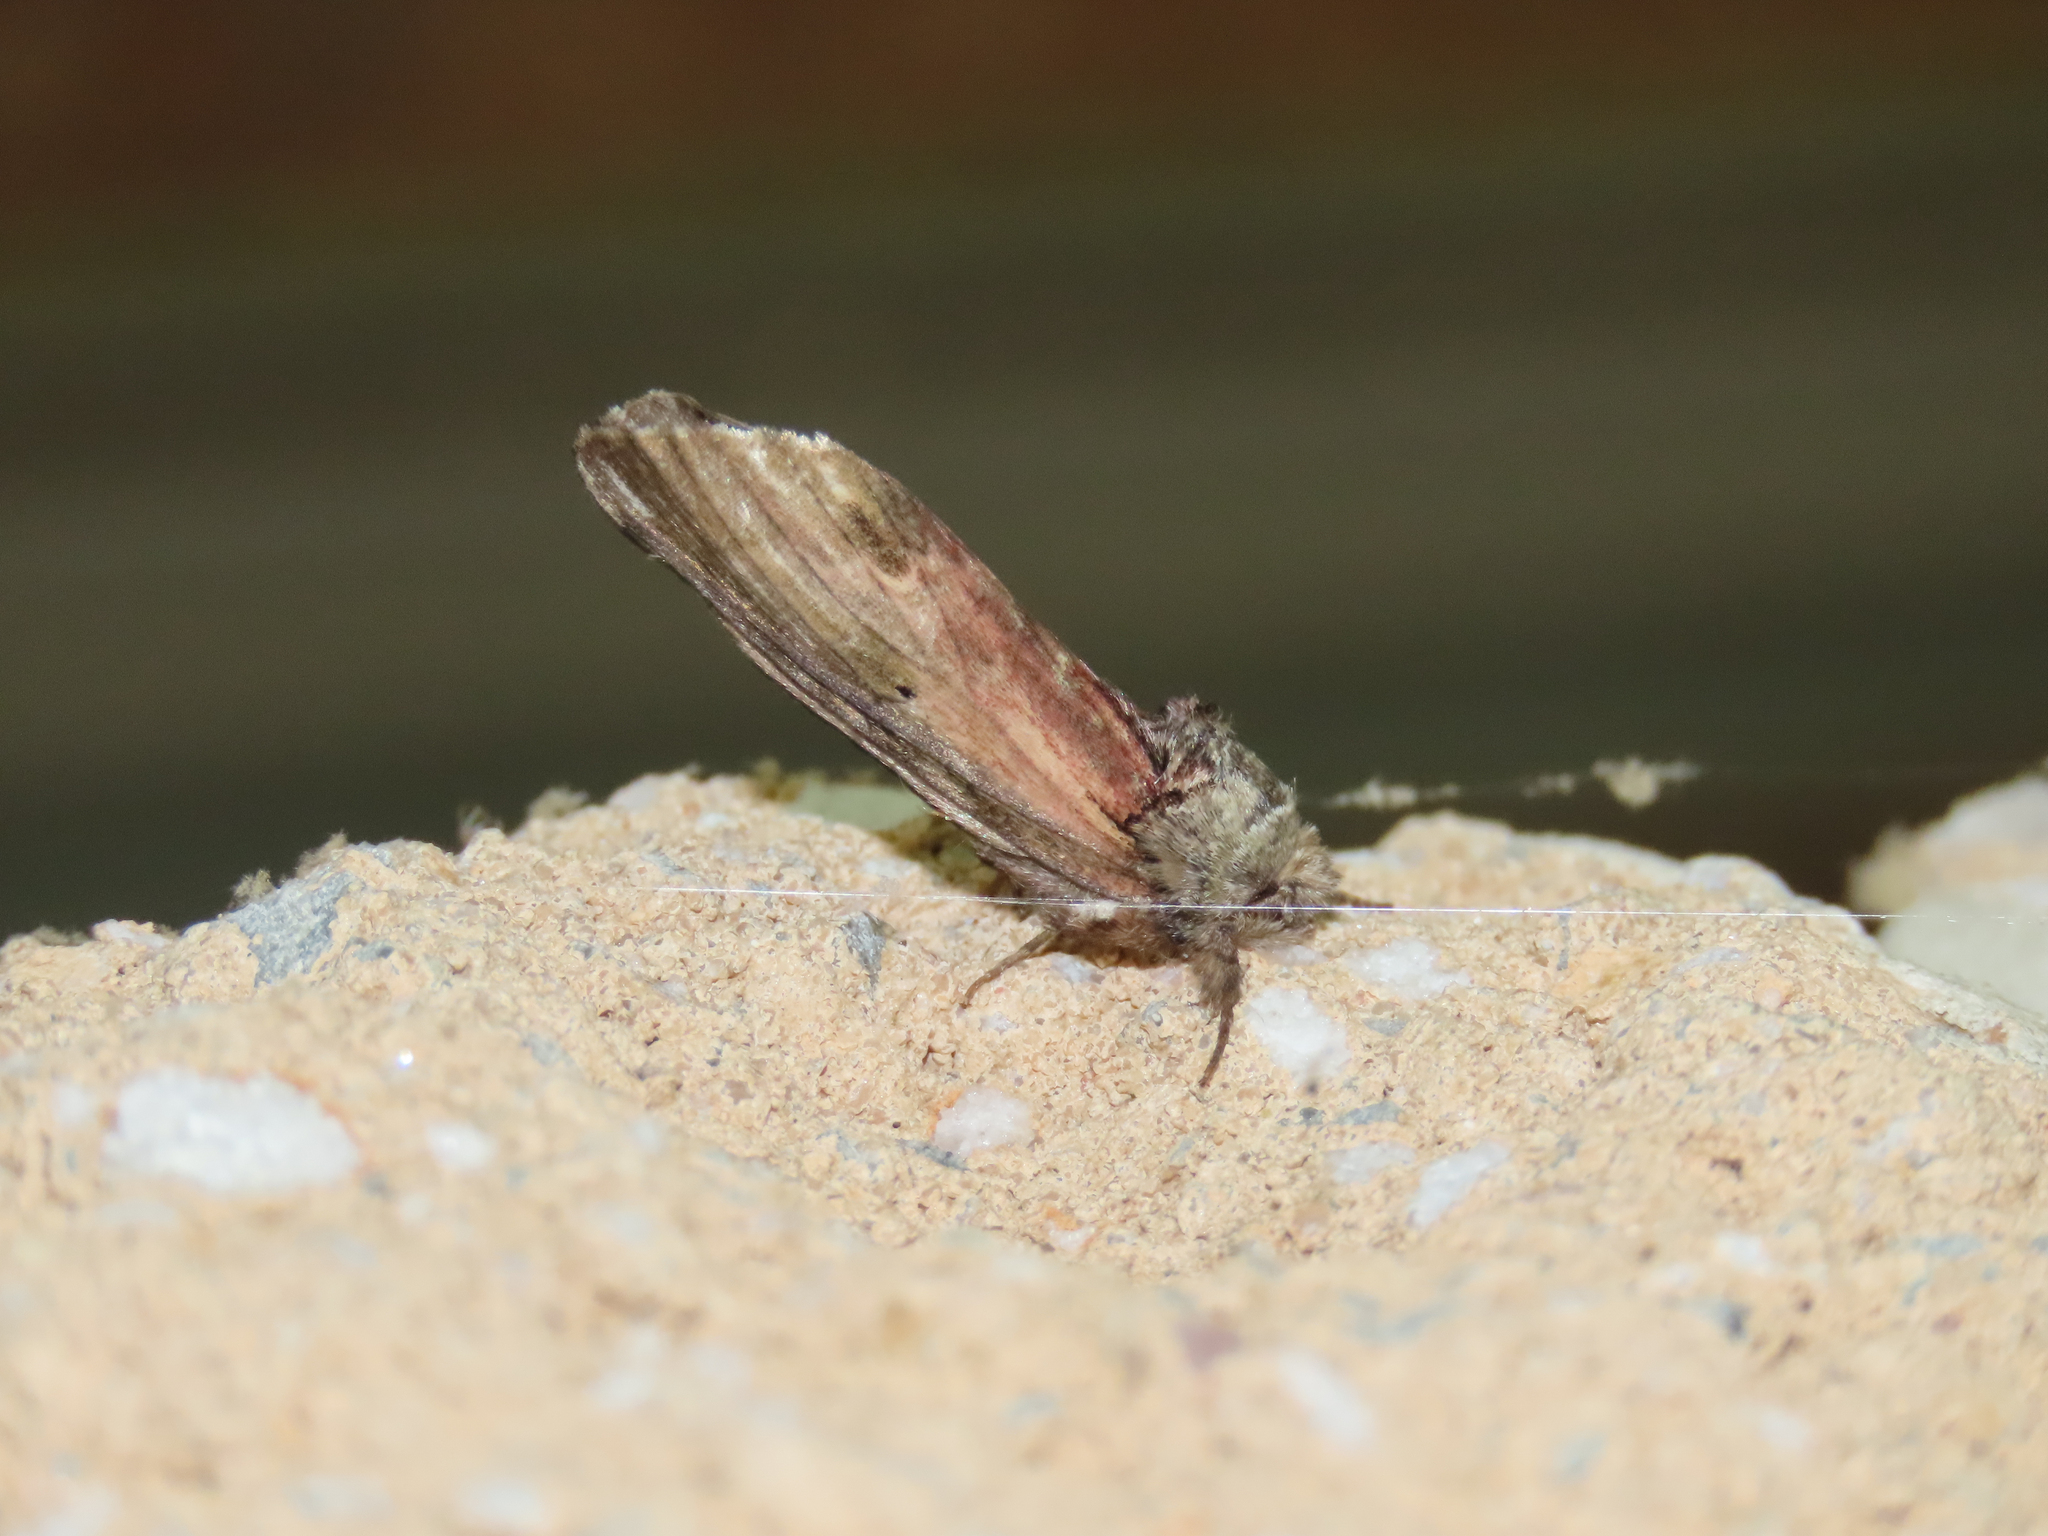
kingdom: Animalia
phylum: Arthropoda
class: Insecta
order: Lepidoptera
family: Notodontidae
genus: Schizura
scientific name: Schizura
